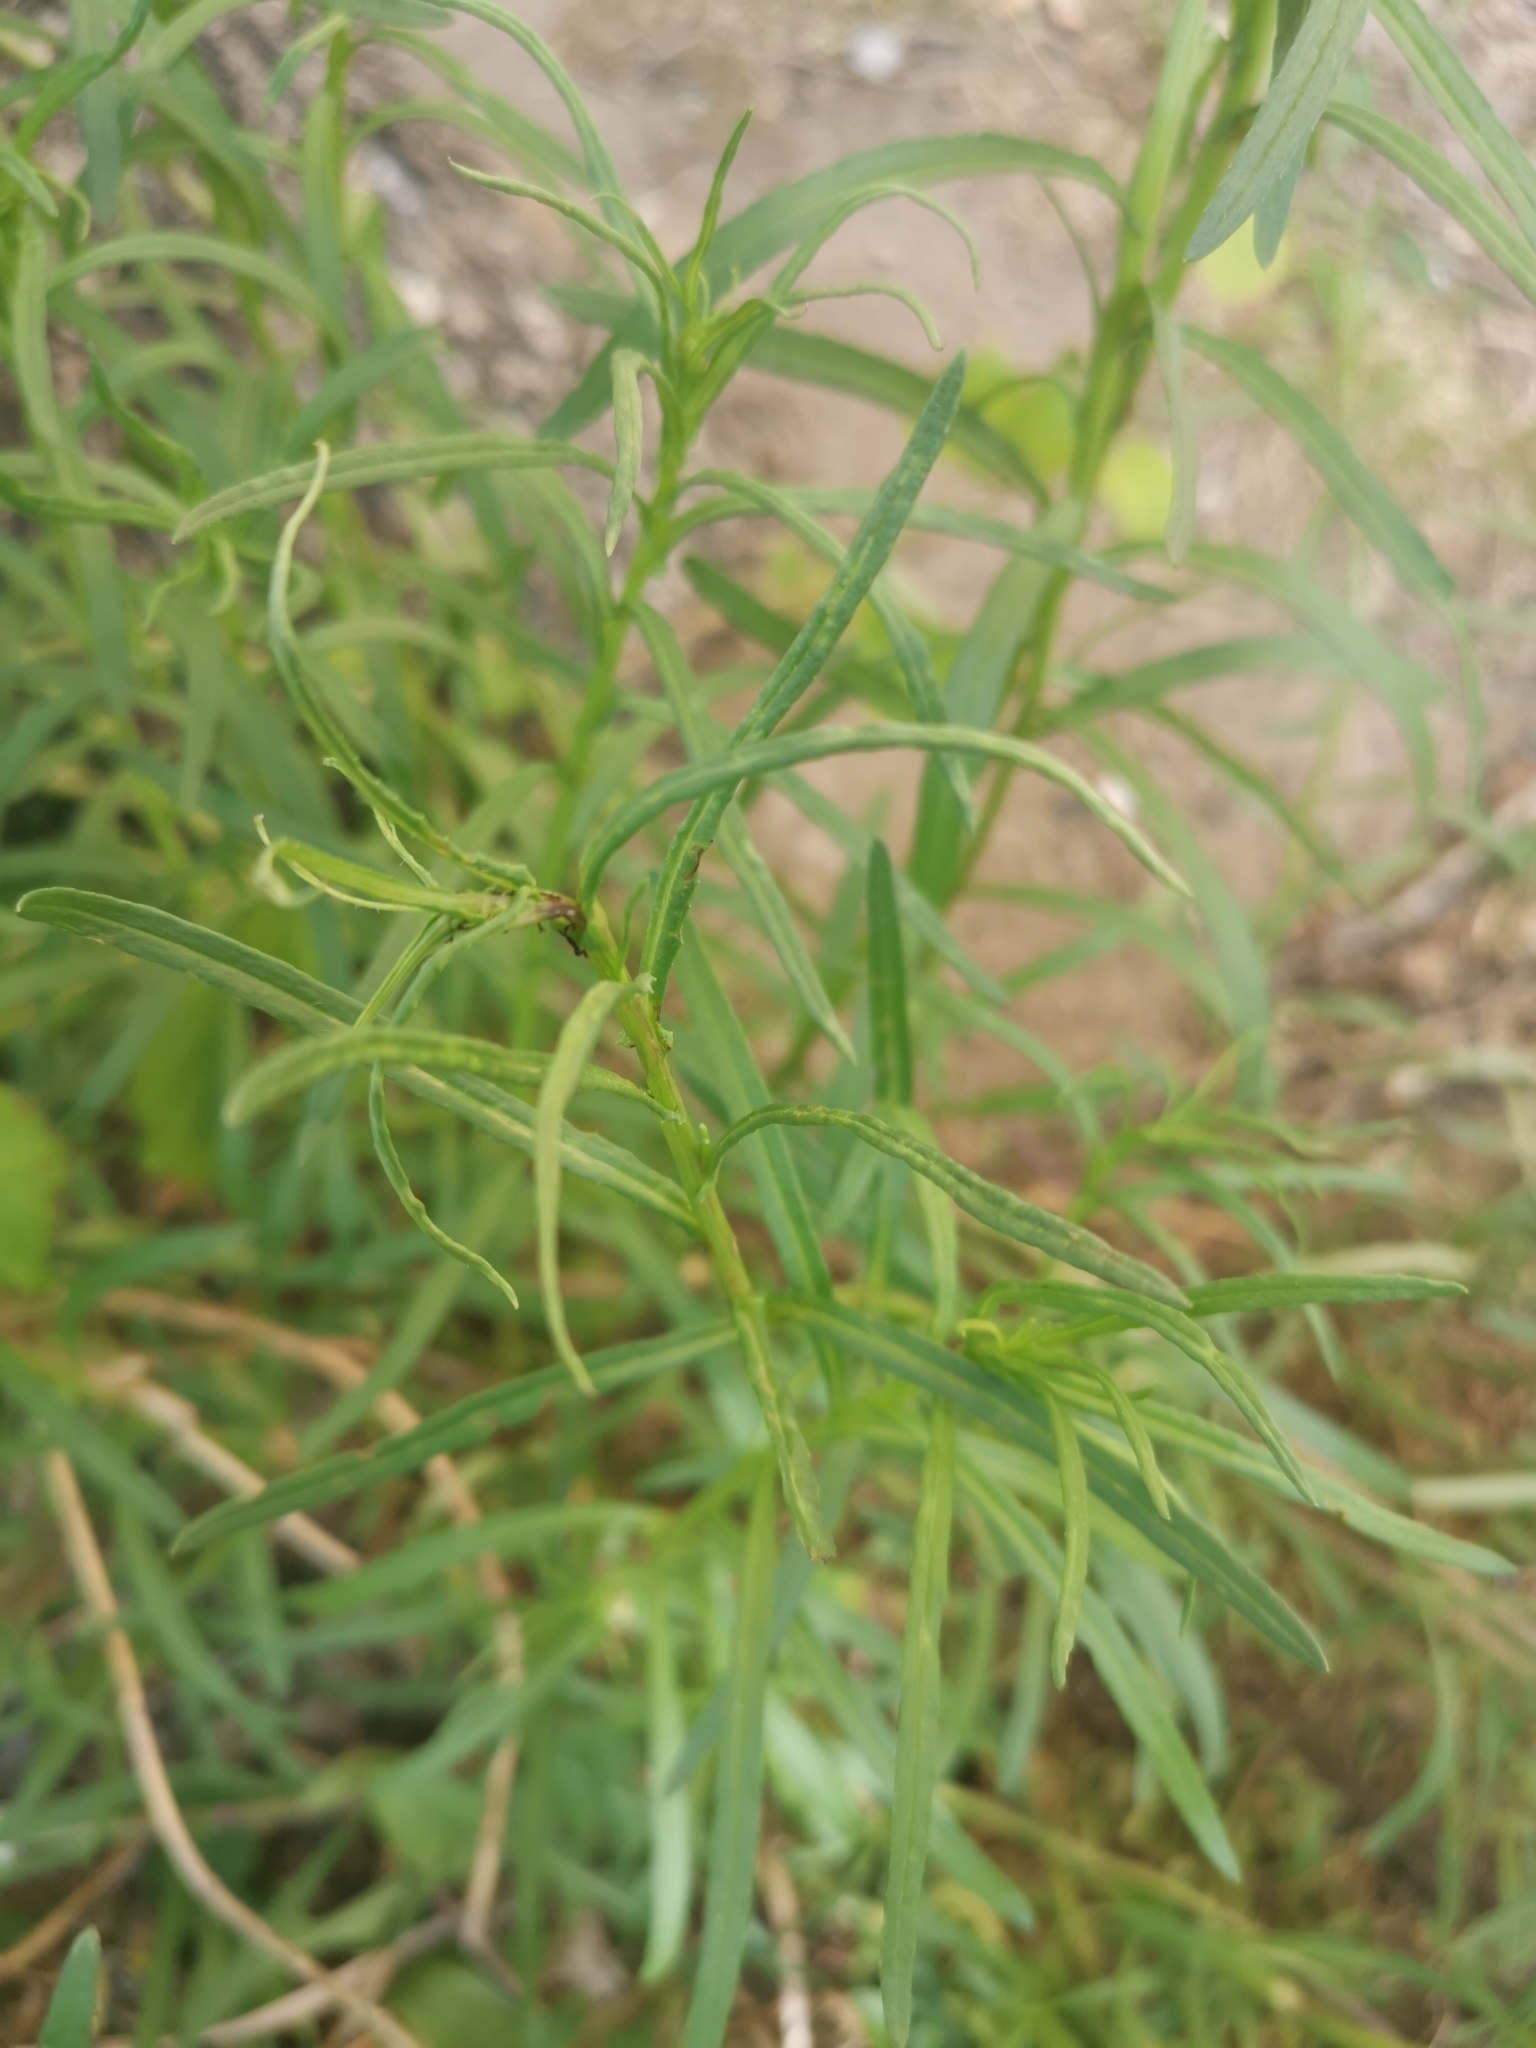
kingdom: Plantae
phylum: Tracheophyta
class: Magnoliopsida
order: Asterales
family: Asteraceae
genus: Senecio
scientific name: Senecio inaequidens
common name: Narrow-leaved ragwort
